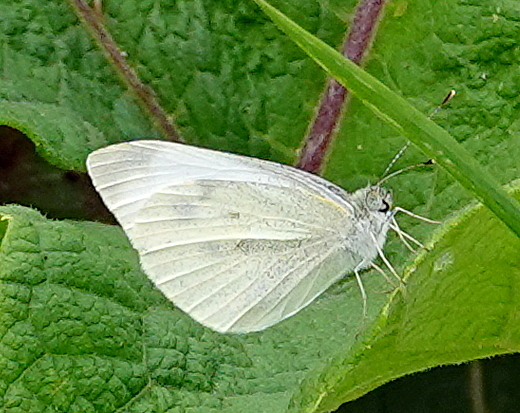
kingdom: Animalia
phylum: Arthropoda
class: Insecta
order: Lepidoptera
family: Pieridae
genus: Pieris
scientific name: Pieris rapae
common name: Small white
